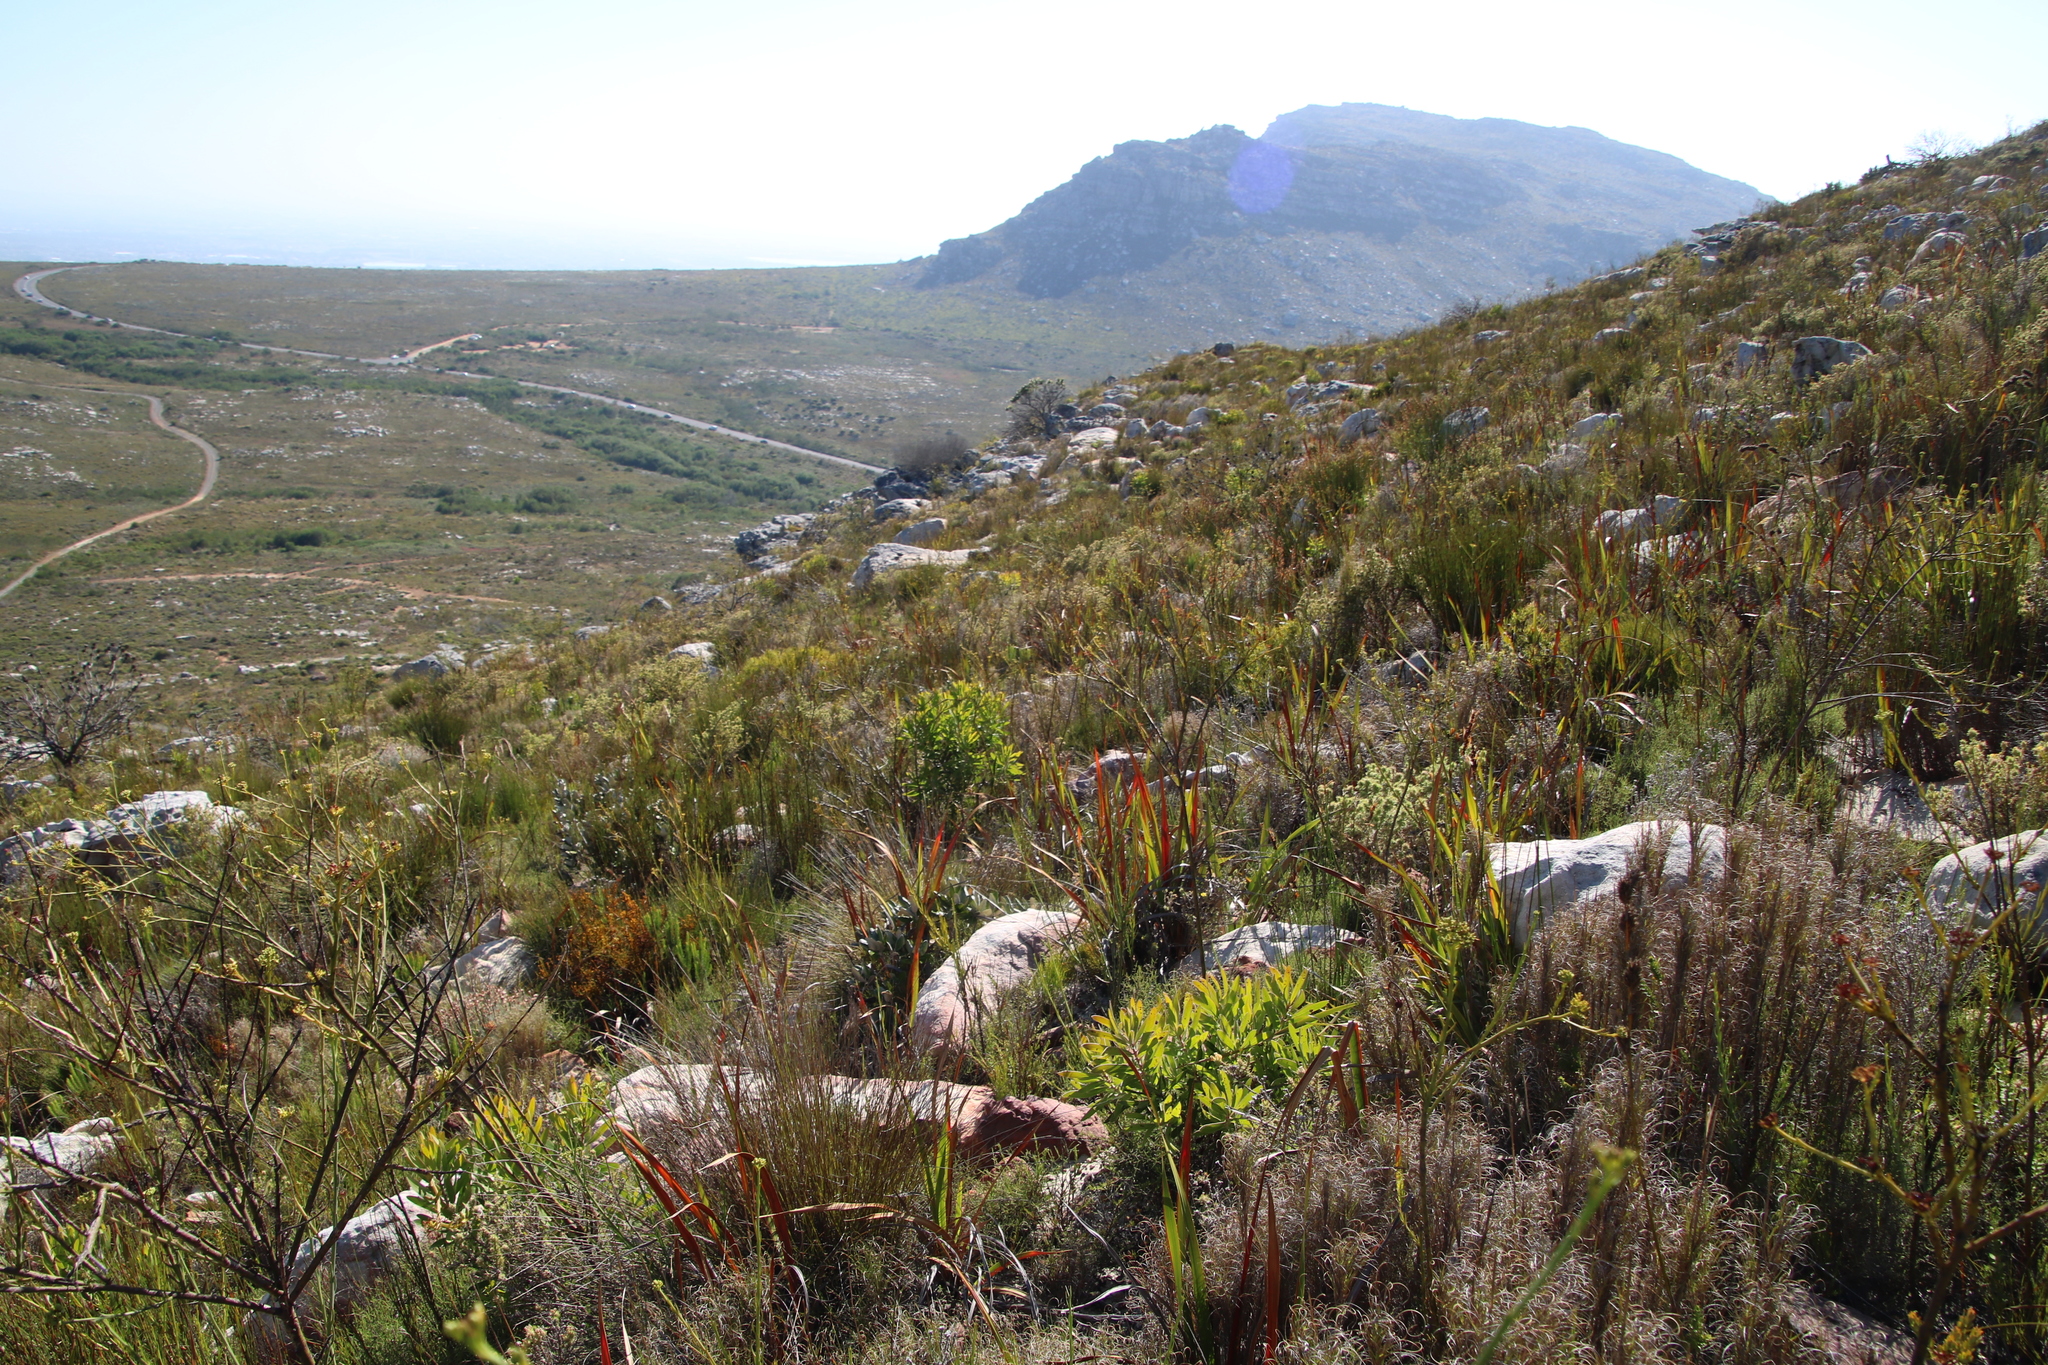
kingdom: Plantae
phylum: Tracheophyta
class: Magnoliopsida
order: Proteales
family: Proteaceae
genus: Protea
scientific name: Protea lepidocarpodendron
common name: Black-bearded protea
